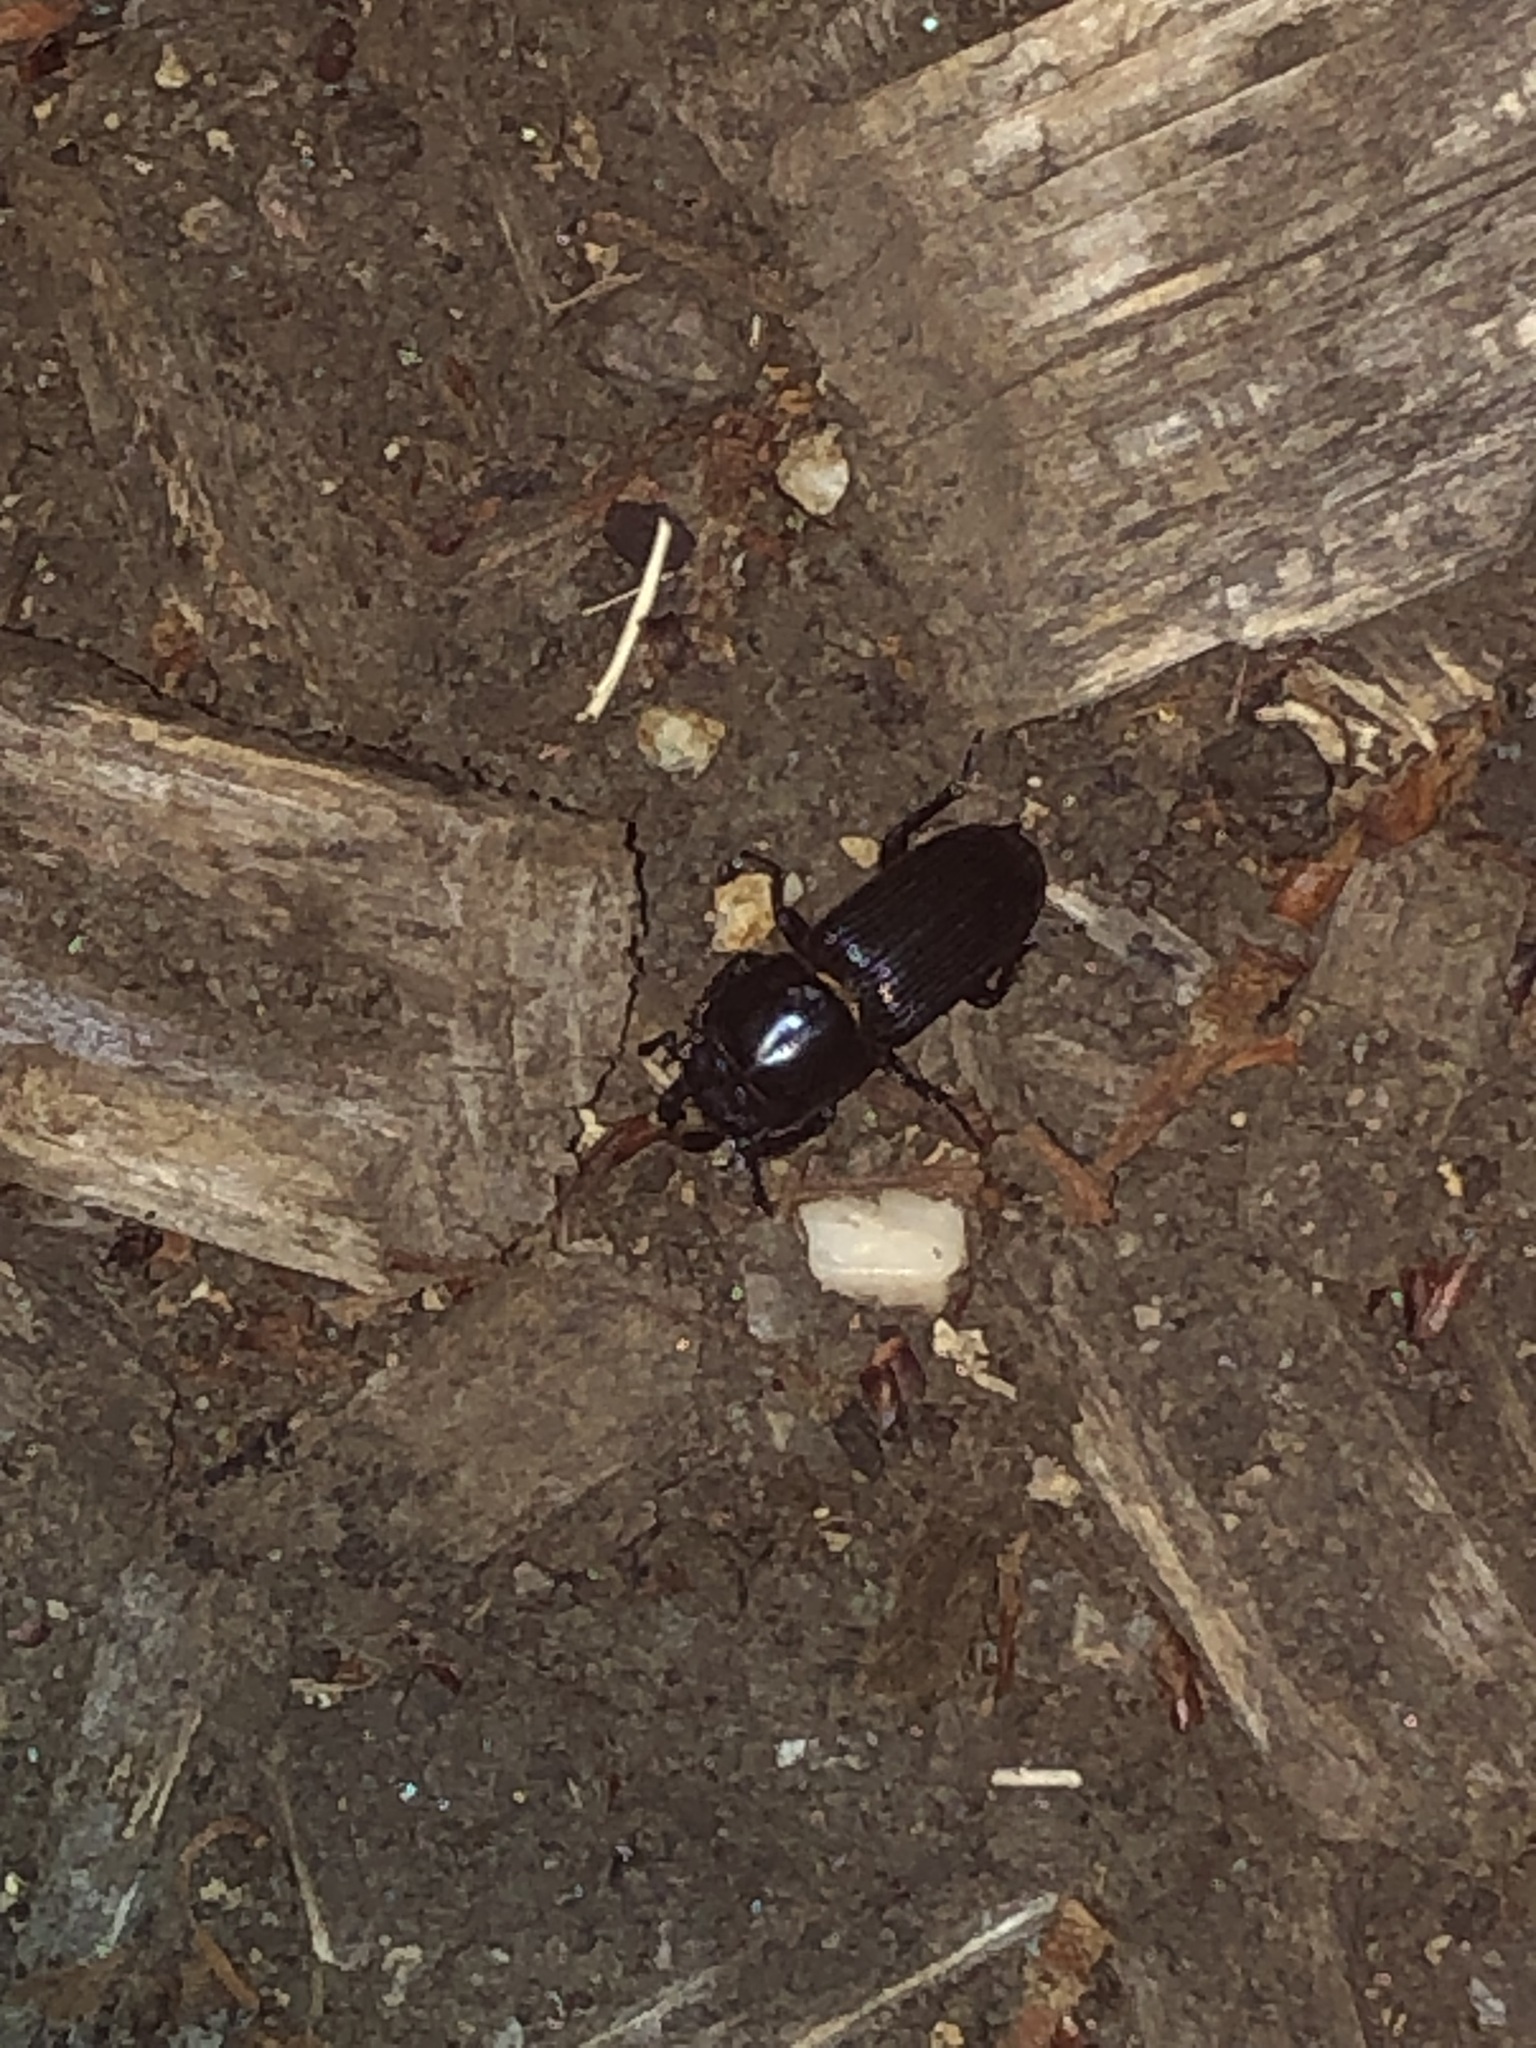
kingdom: Animalia
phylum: Arthropoda
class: Insecta
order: Coleoptera
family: Lucanidae
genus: Figulus
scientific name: Figulus binodulus
